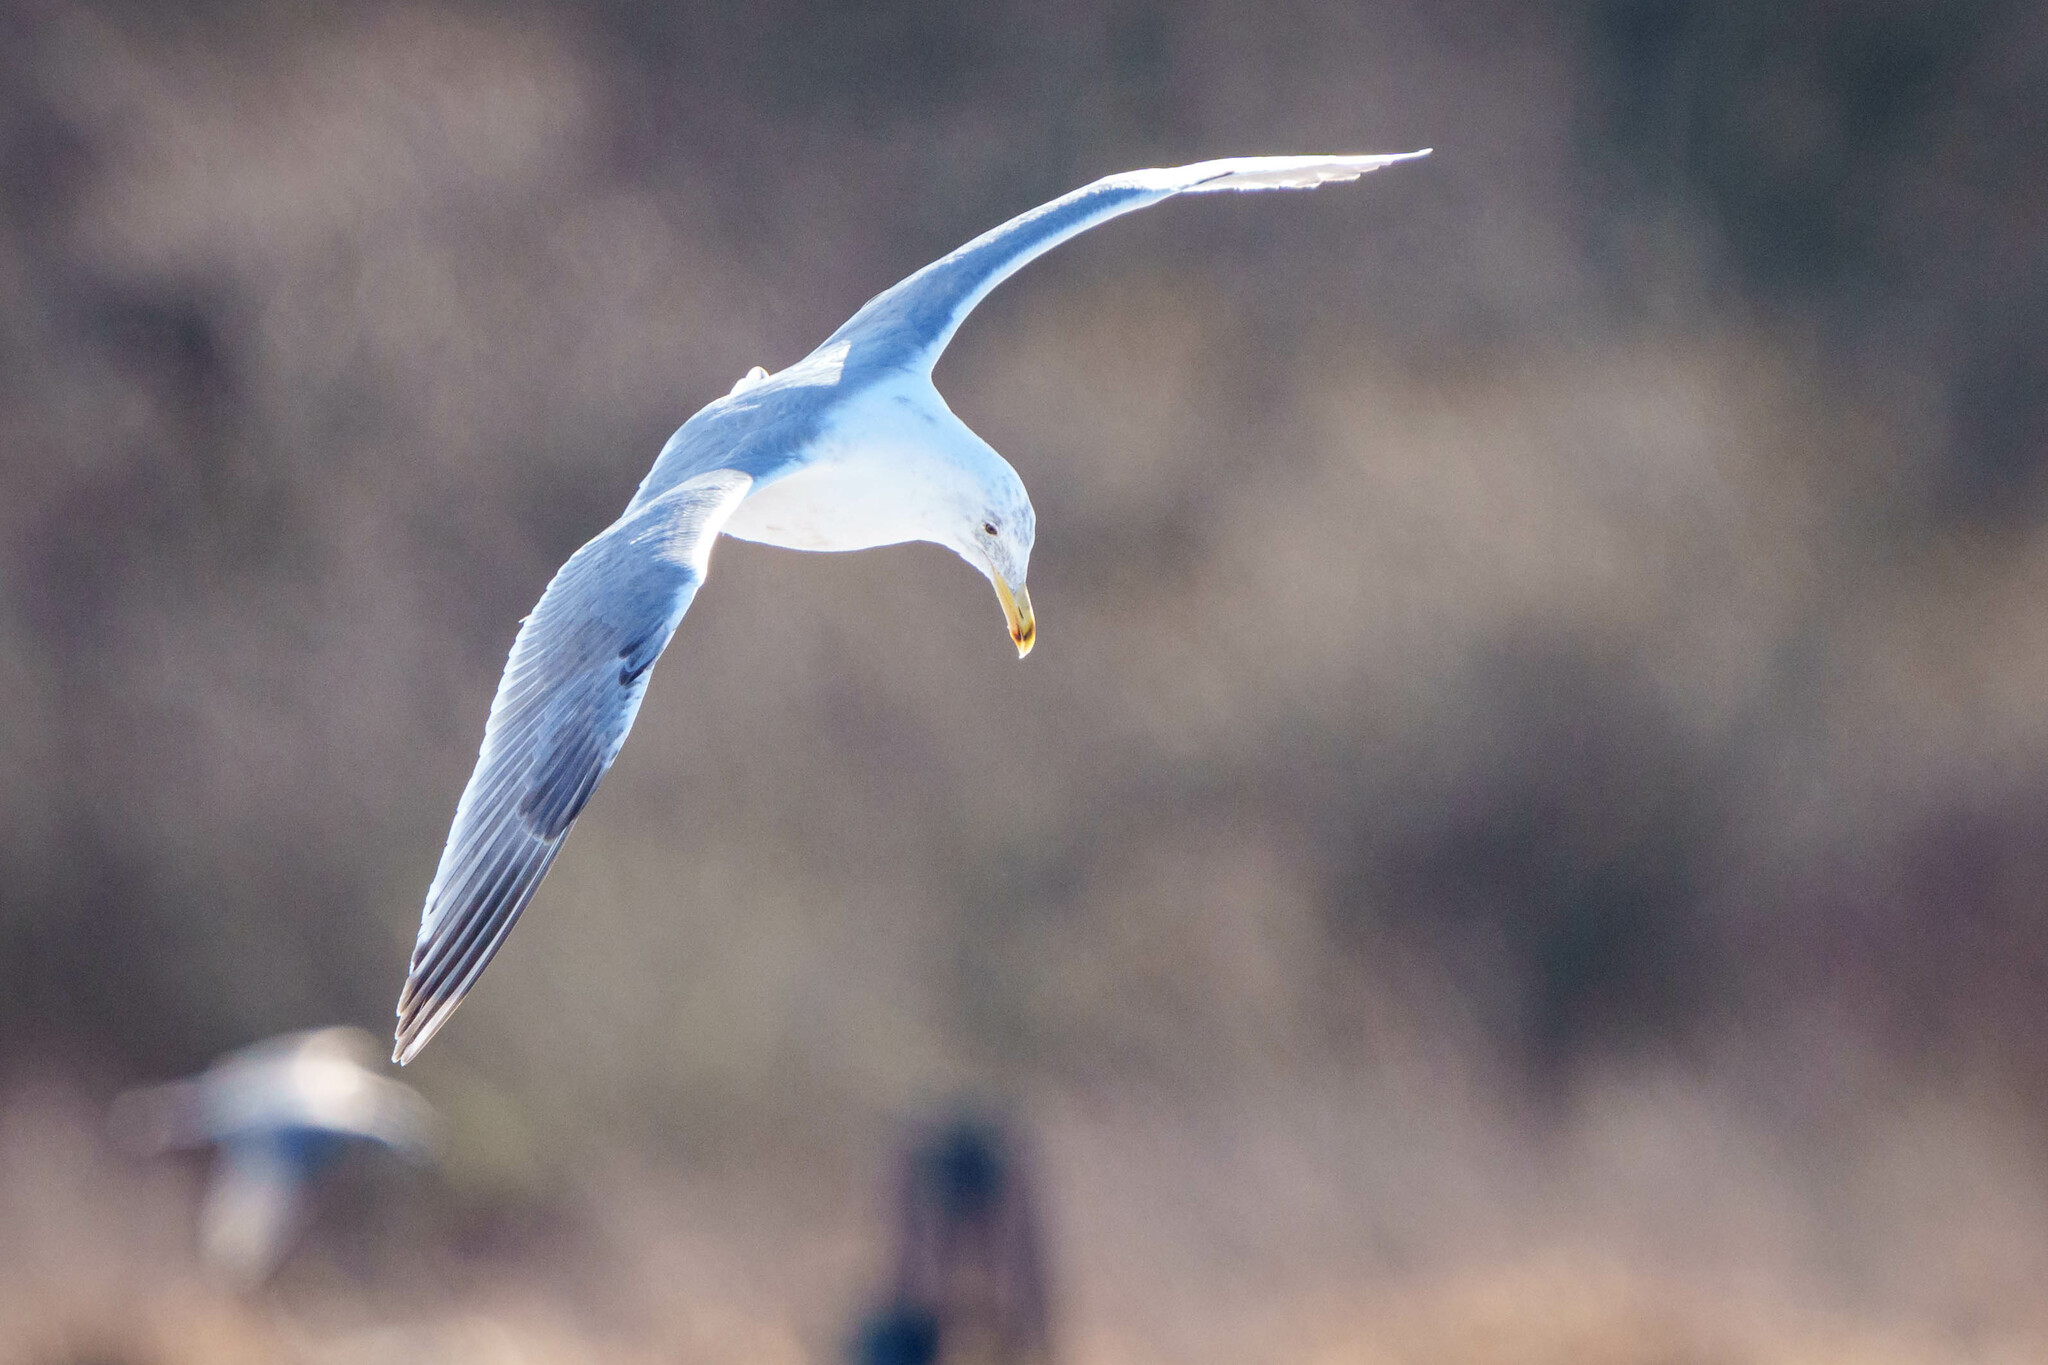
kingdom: Animalia
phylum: Chordata
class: Aves
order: Charadriiformes
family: Laridae
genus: Larus
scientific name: Larus
